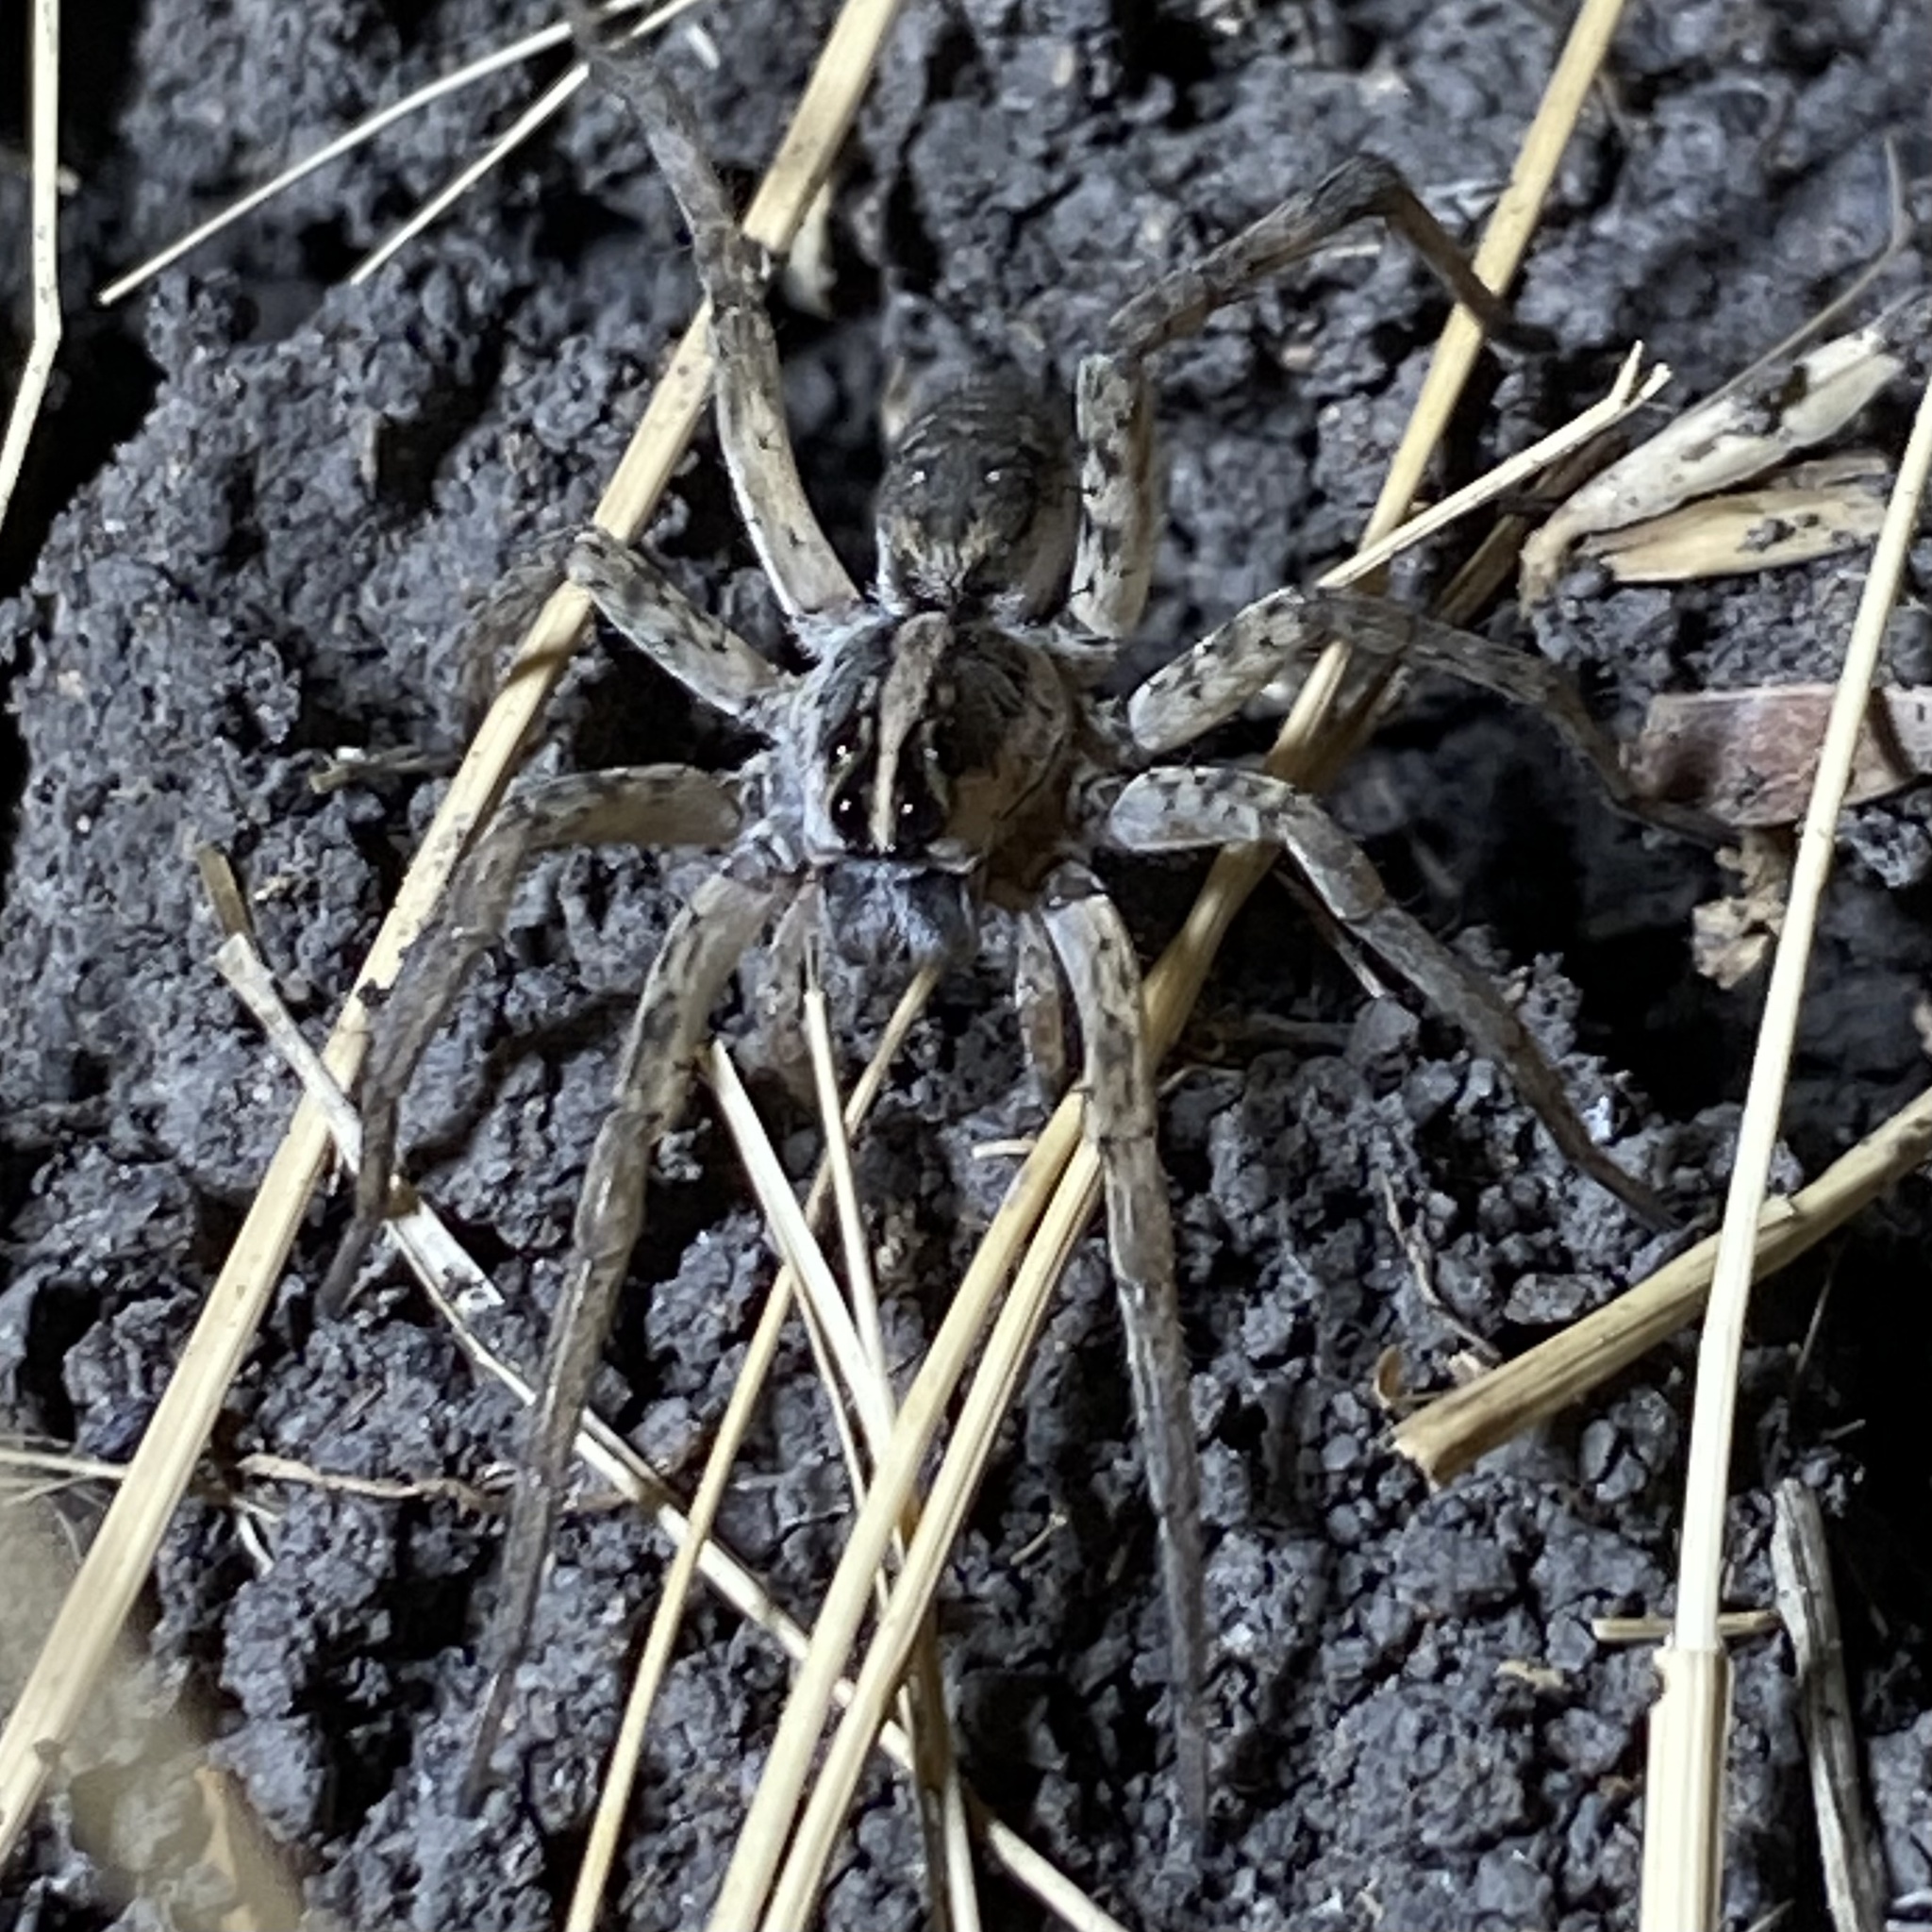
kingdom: Animalia
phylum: Arthropoda
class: Arachnida
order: Araneae
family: Lycosidae
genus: Hogna
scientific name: Hogna antelucana
